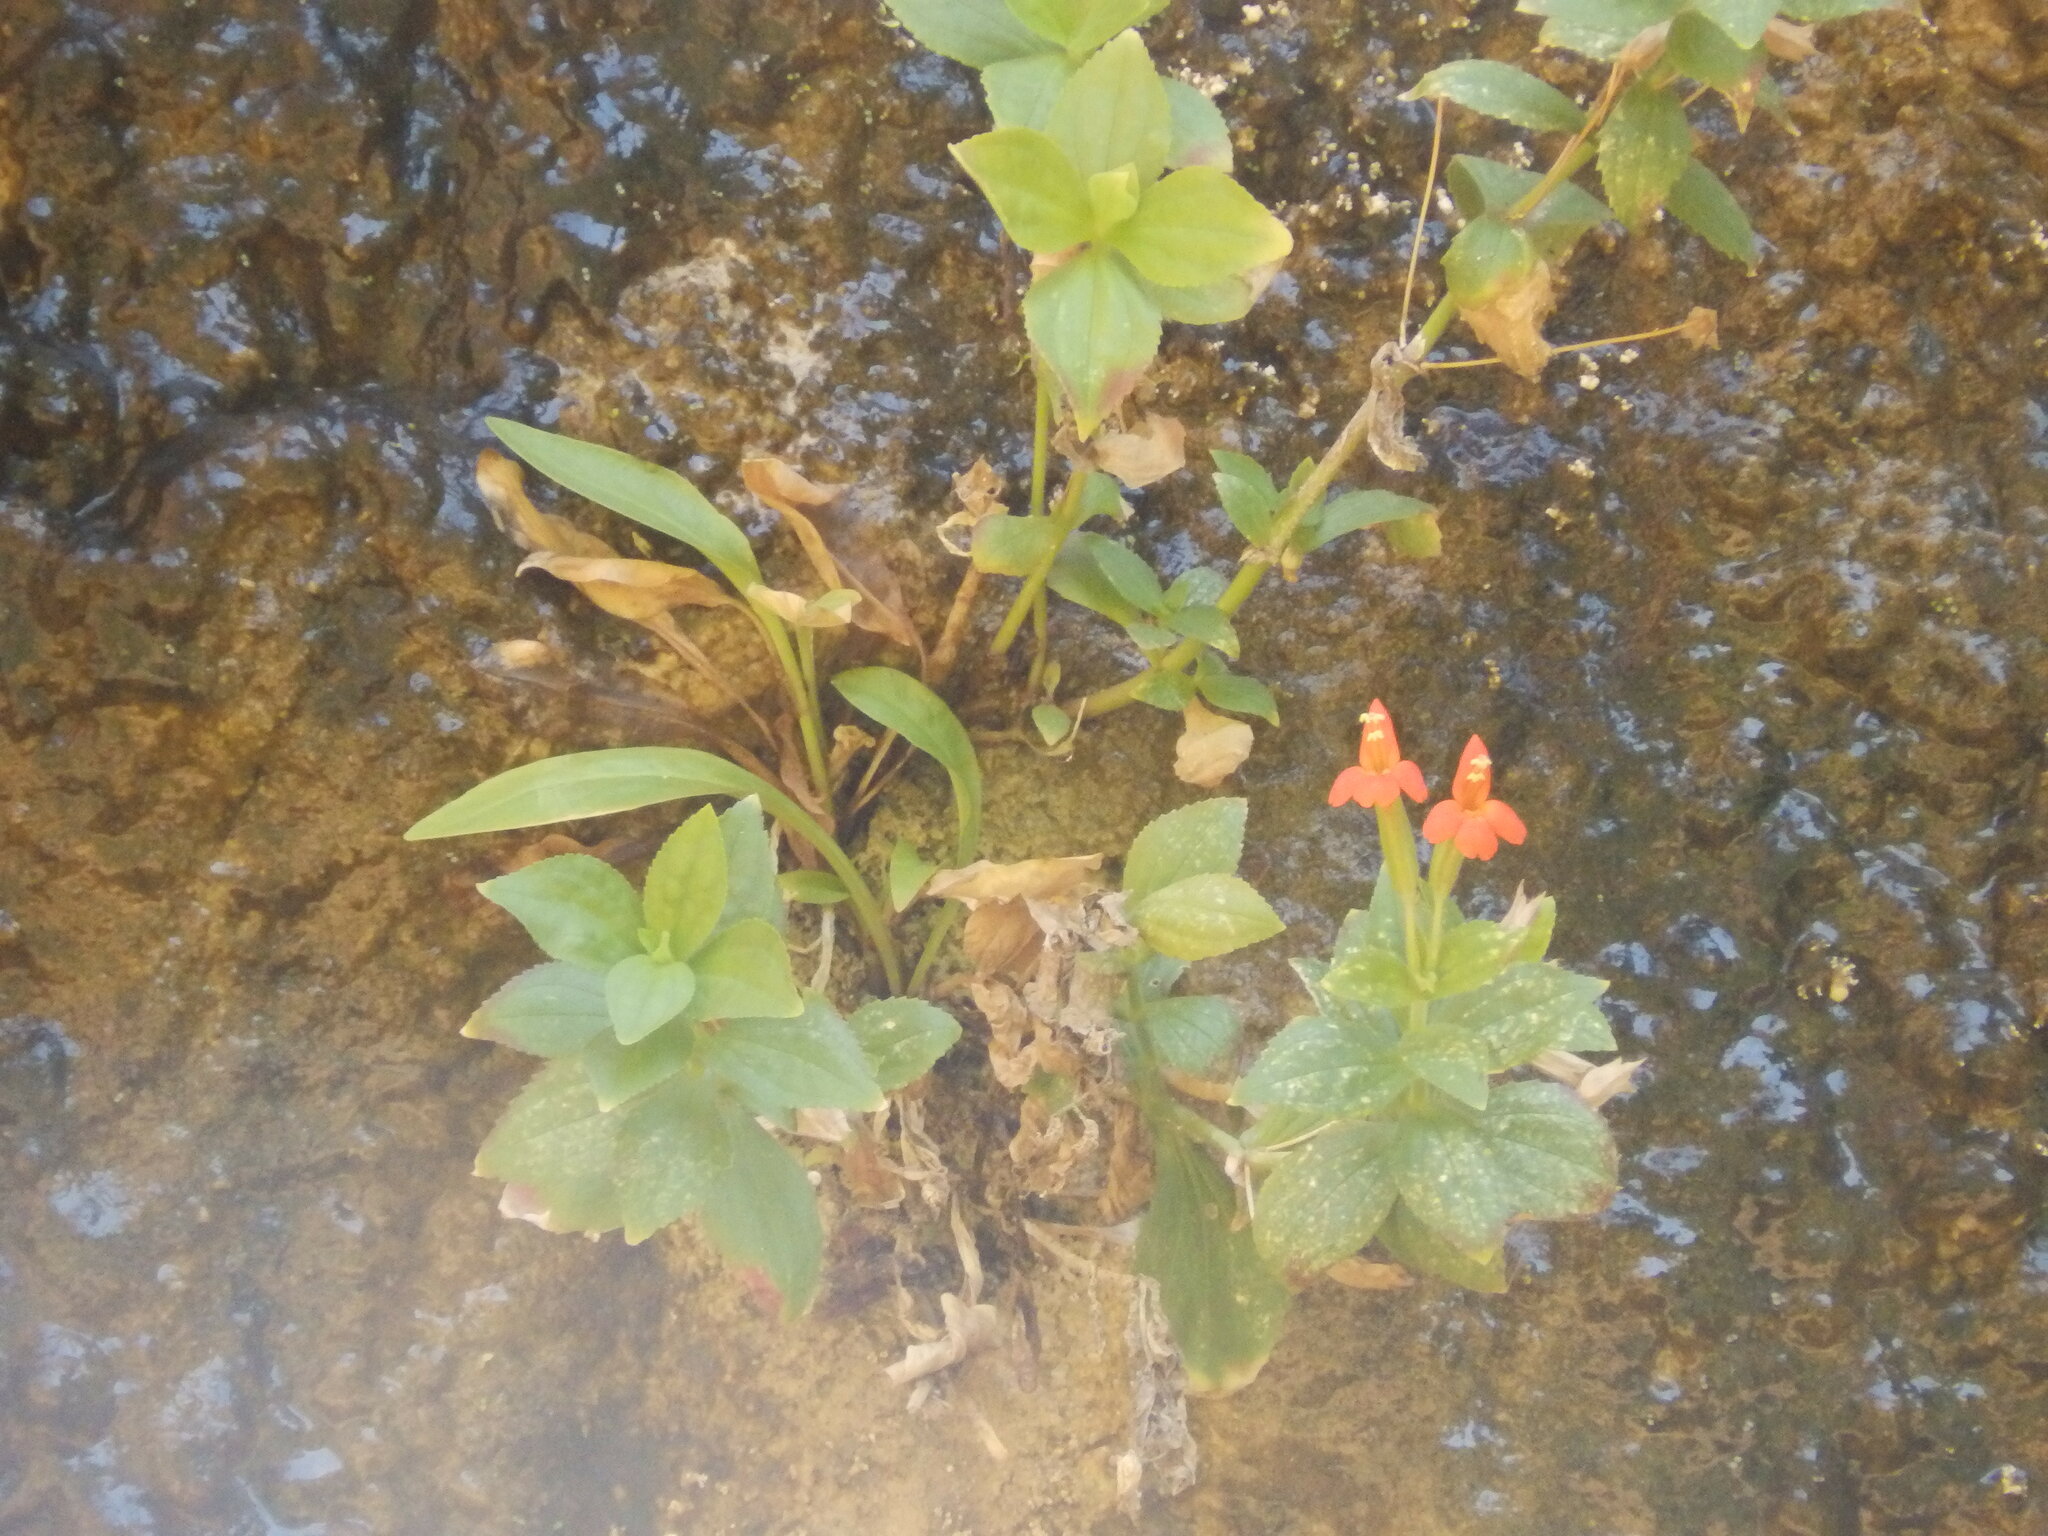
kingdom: Plantae
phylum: Tracheophyta
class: Magnoliopsida
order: Lamiales
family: Phrymaceae
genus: Erythranthe
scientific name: Erythranthe verbenacea
